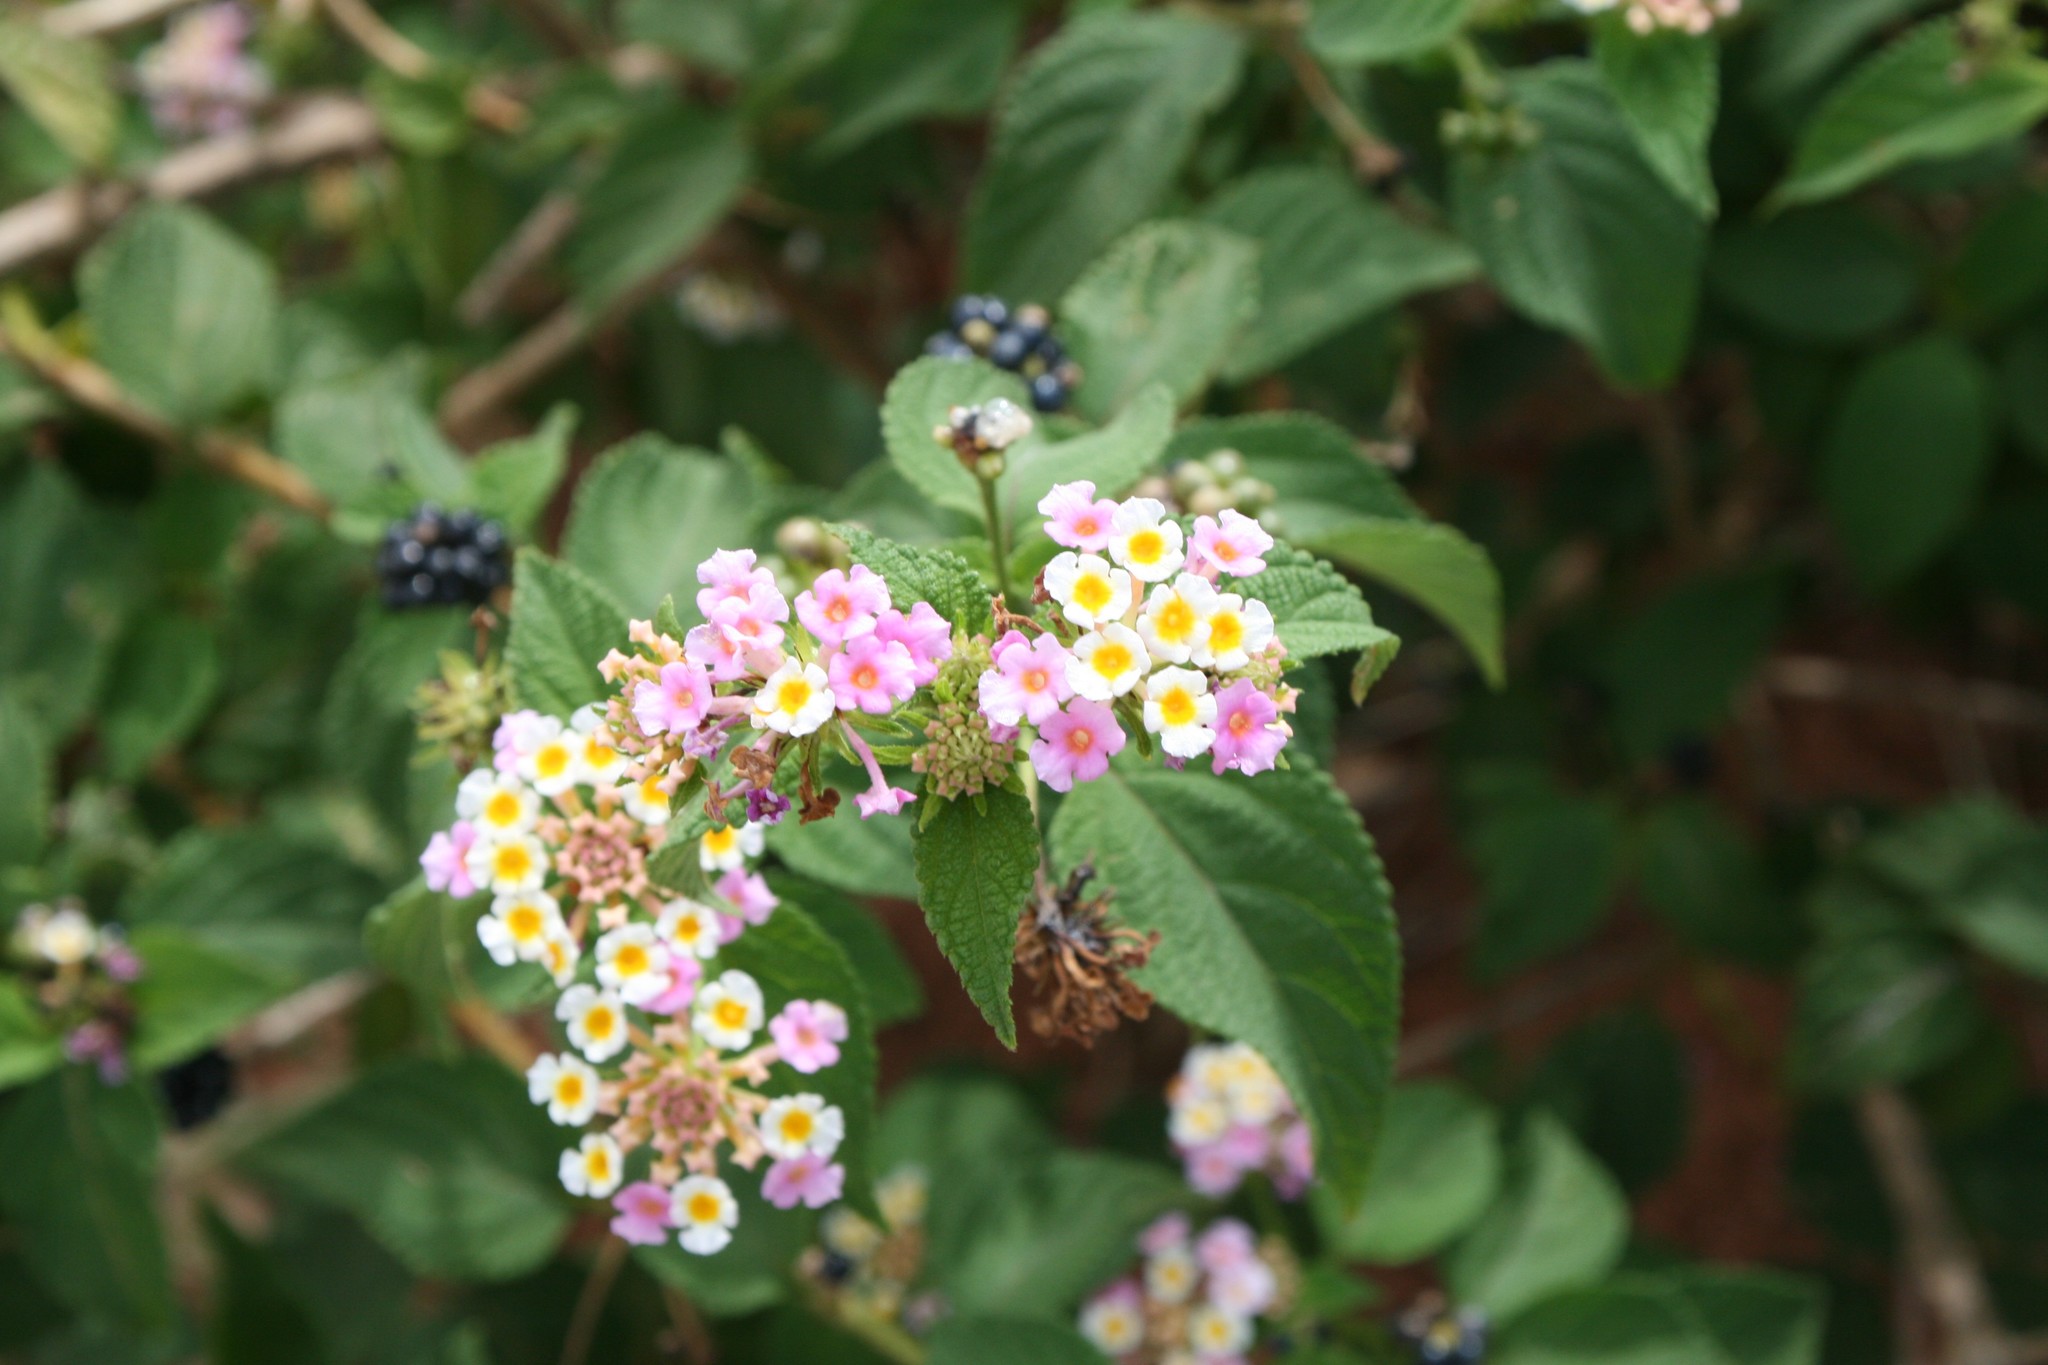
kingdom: Plantae
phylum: Tracheophyta
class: Magnoliopsida
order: Lamiales
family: Verbenaceae
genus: Lantana
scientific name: Lantana camara
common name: Lantana
